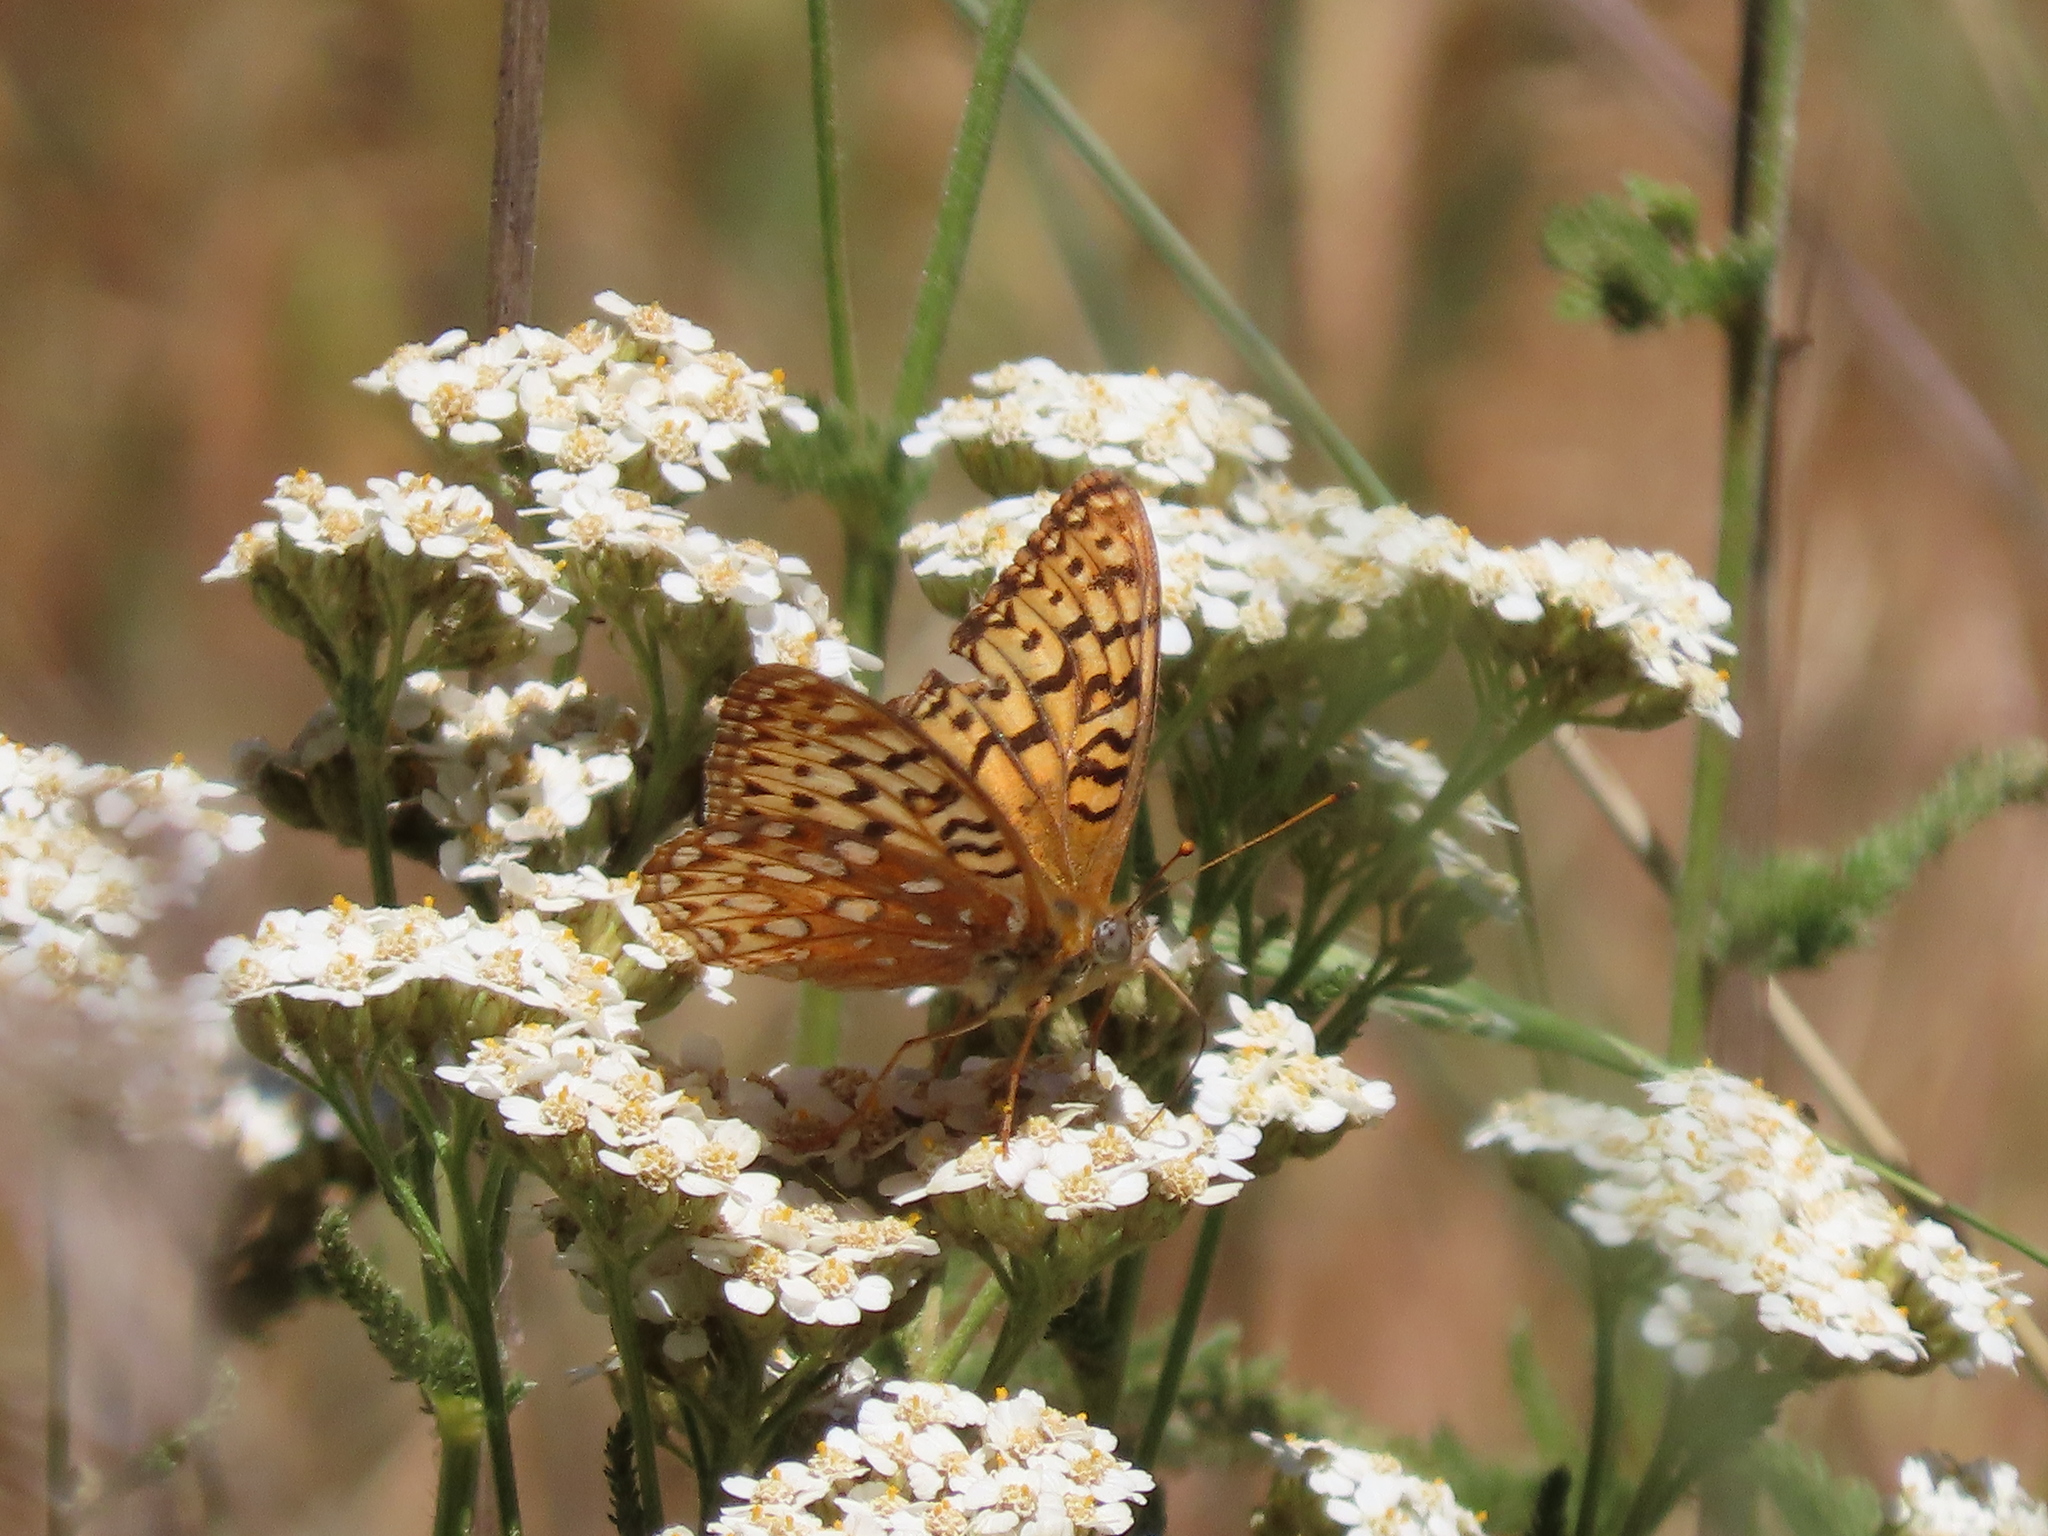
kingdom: Animalia
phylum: Arthropoda
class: Insecta
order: Lepidoptera
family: Nymphalidae
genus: Argynnis
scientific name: Argynnis coronis
